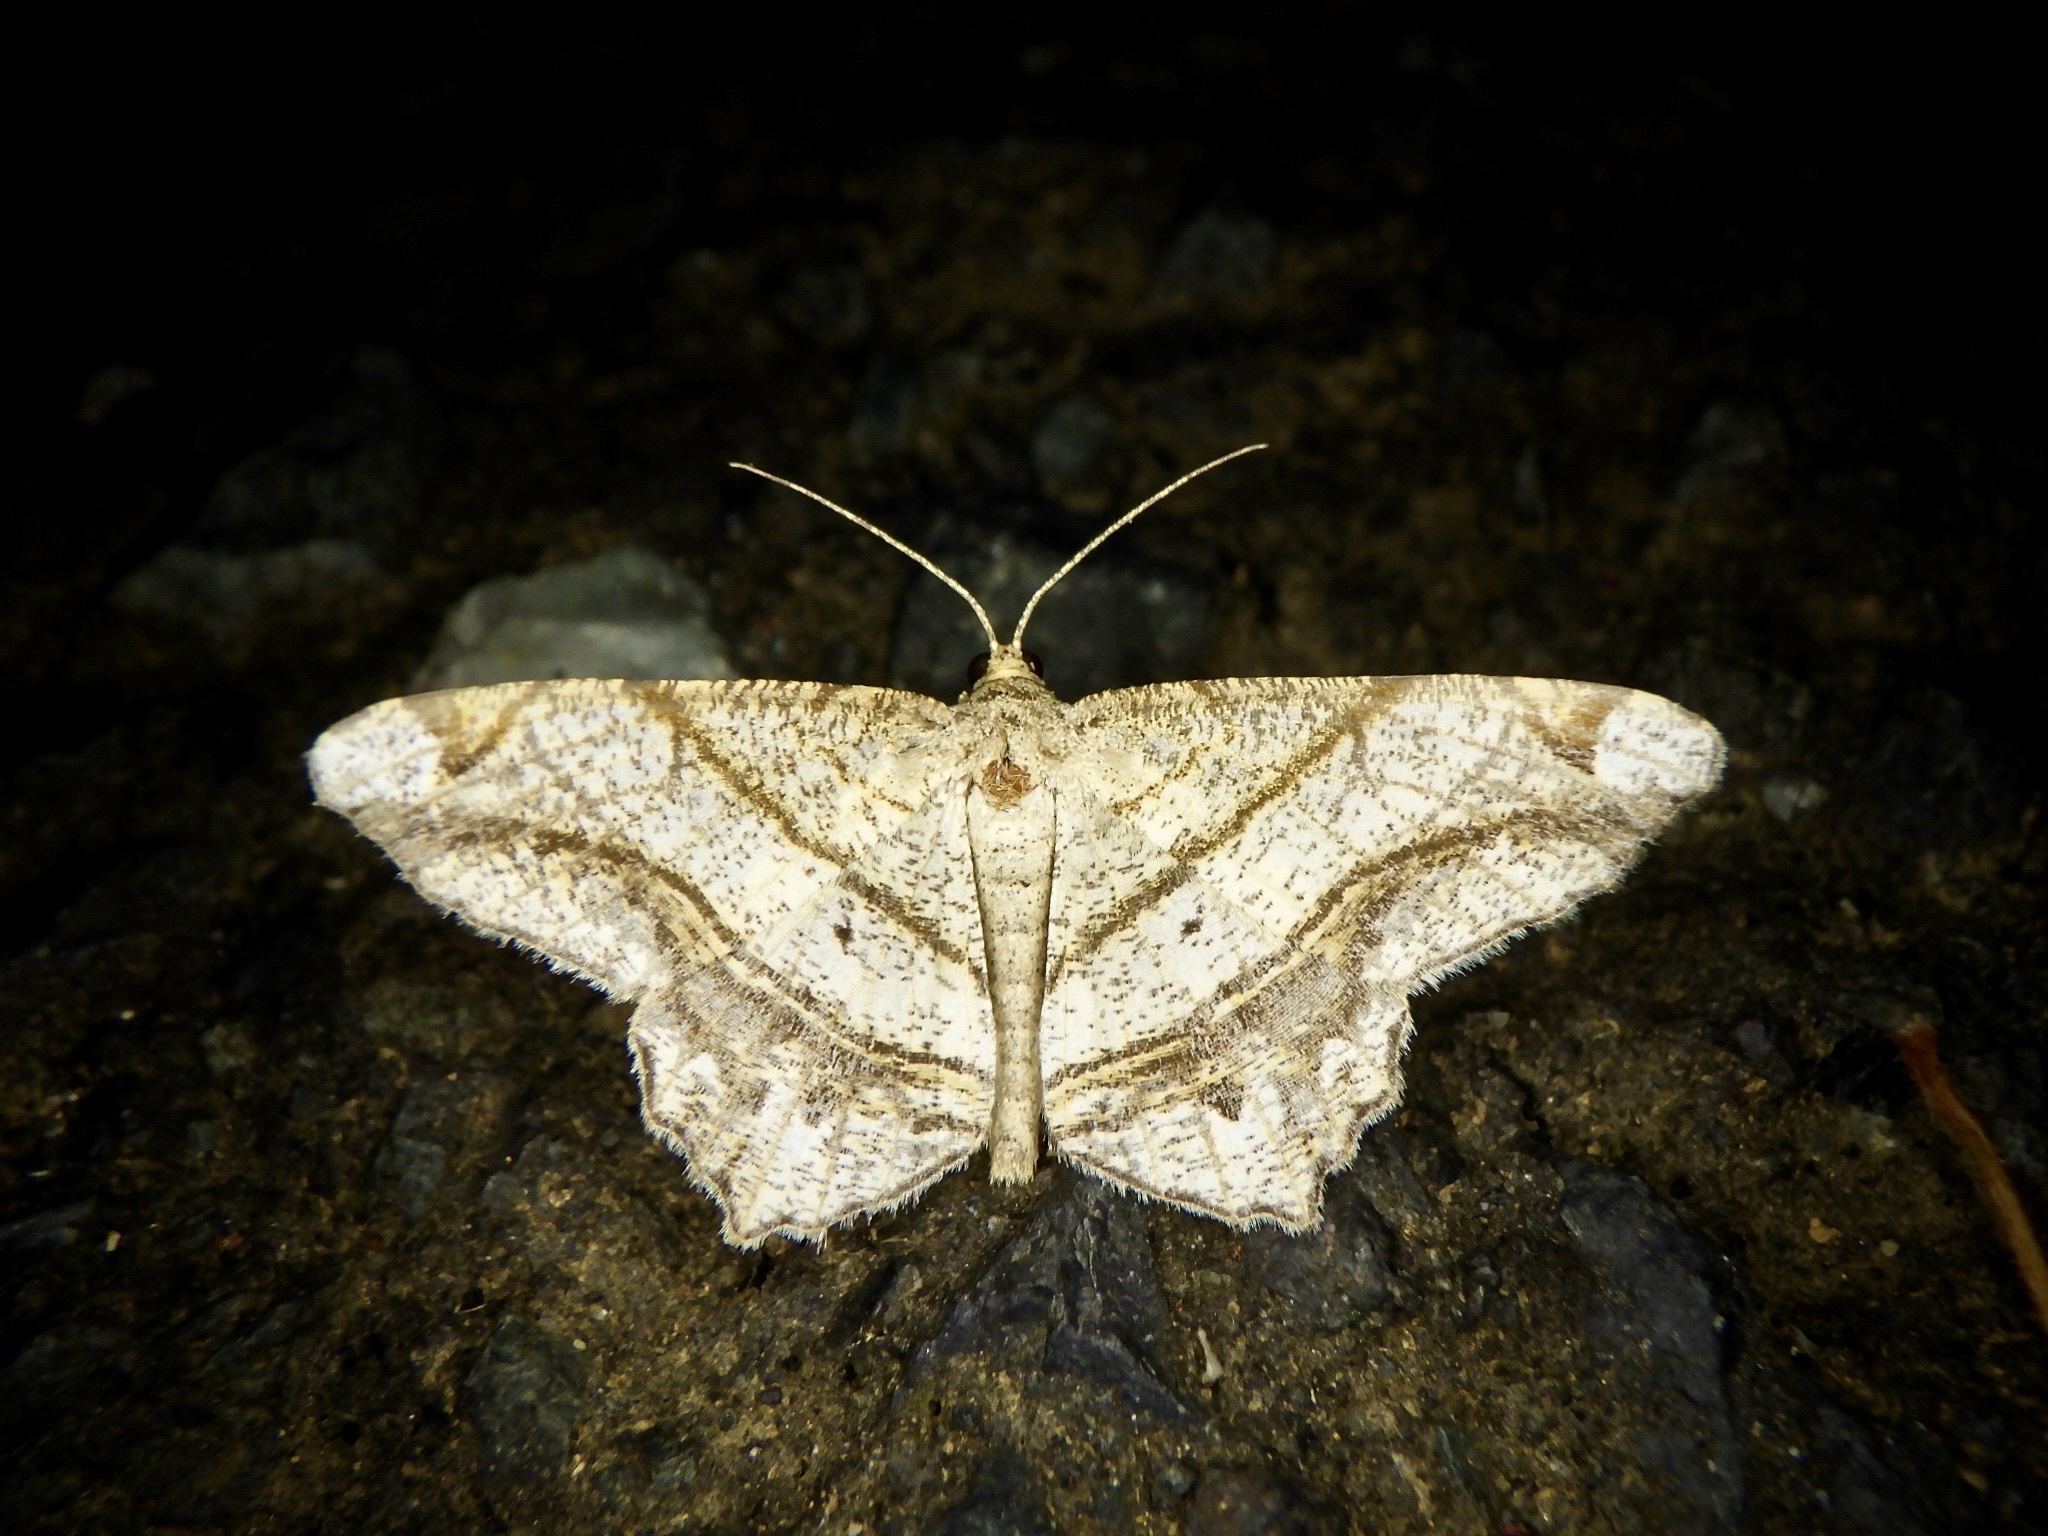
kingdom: Animalia
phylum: Arthropoda
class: Insecta
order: Lepidoptera
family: Geometridae
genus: Chiasmia
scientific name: Chiasmia defixaria
